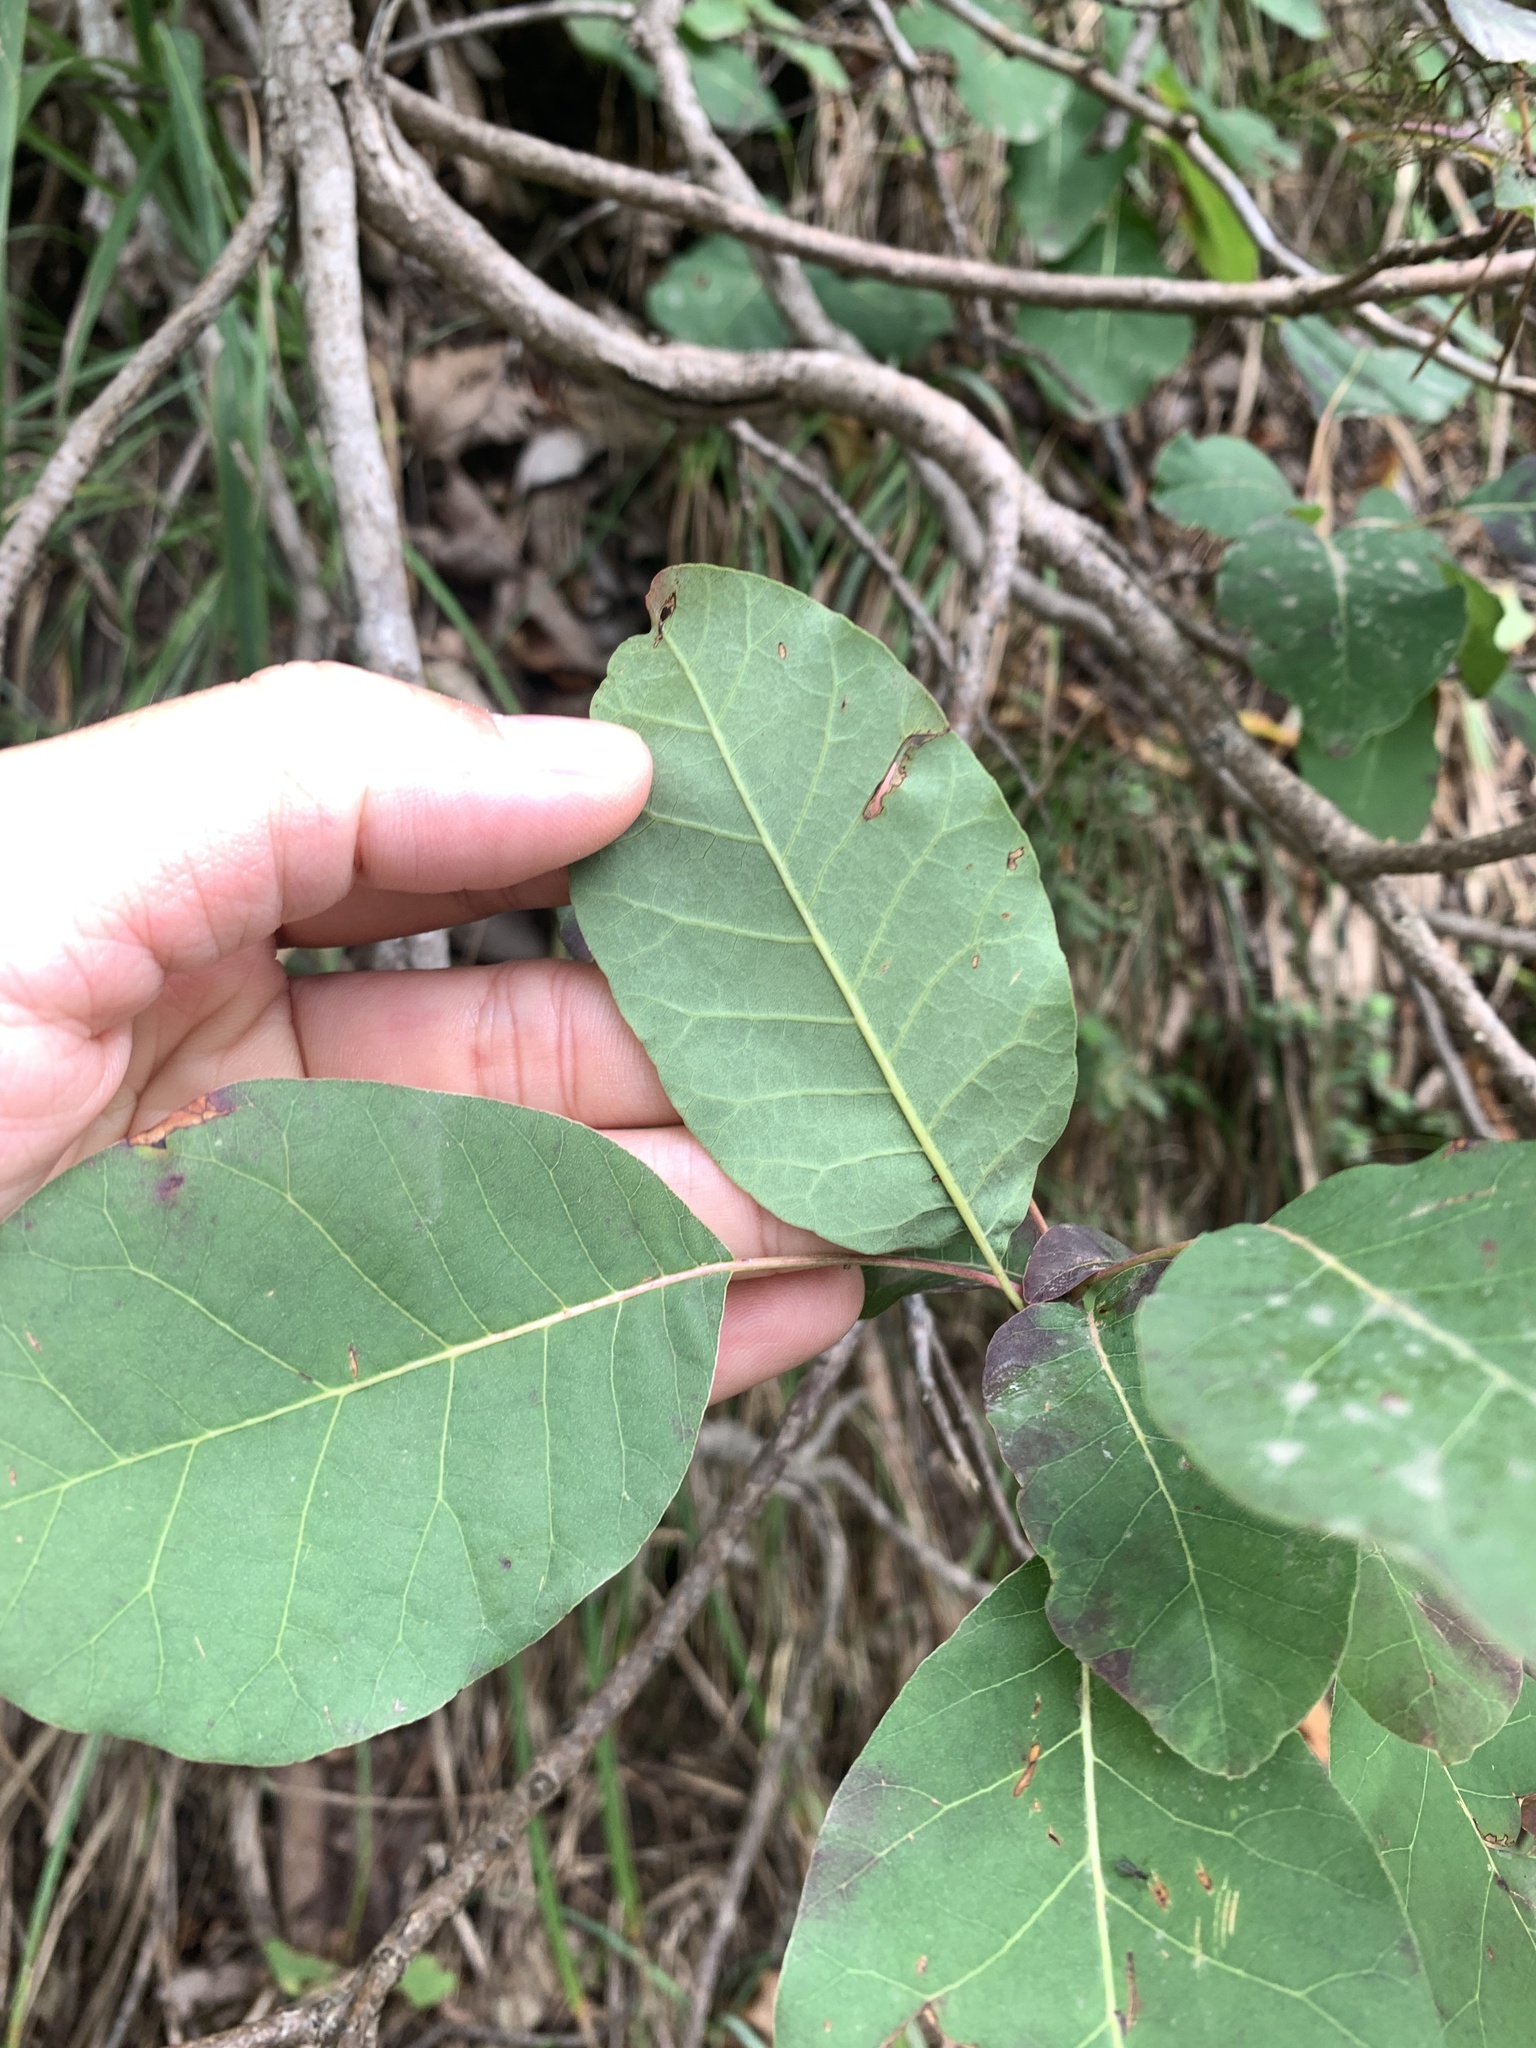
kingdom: Plantae
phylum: Tracheophyta
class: Magnoliopsida
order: Sapindales
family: Anacardiaceae
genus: Cotinus
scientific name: Cotinus coggygria
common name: Smoke-tree
